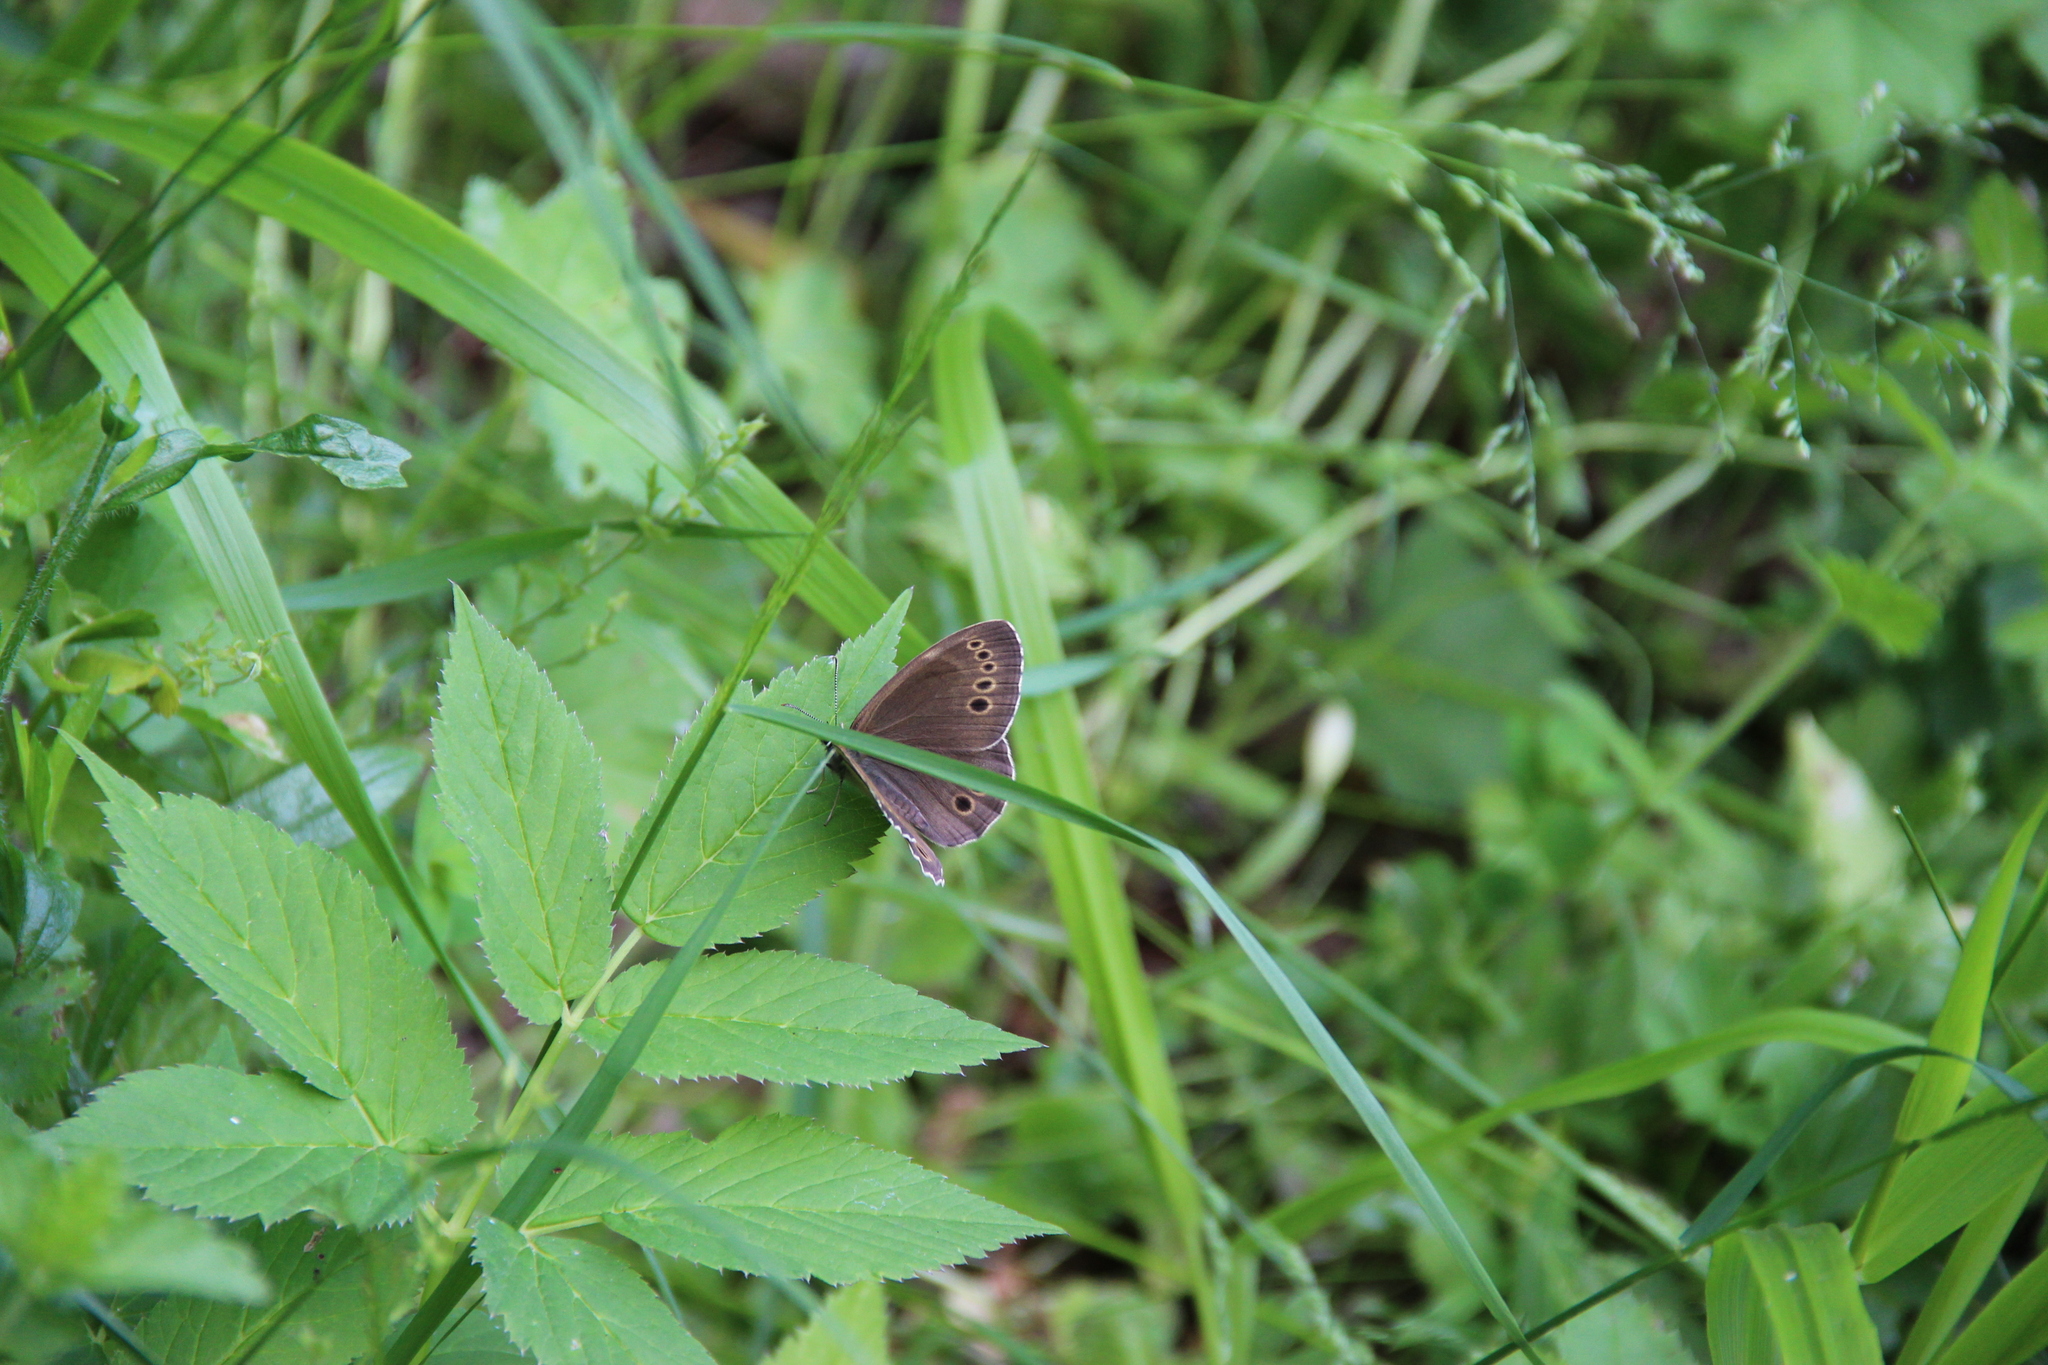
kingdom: Animalia
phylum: Arthropoda
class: Insecta
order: Lepidoptera
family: Nymphalidae
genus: Pararge
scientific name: Pararge Lopinga achine
